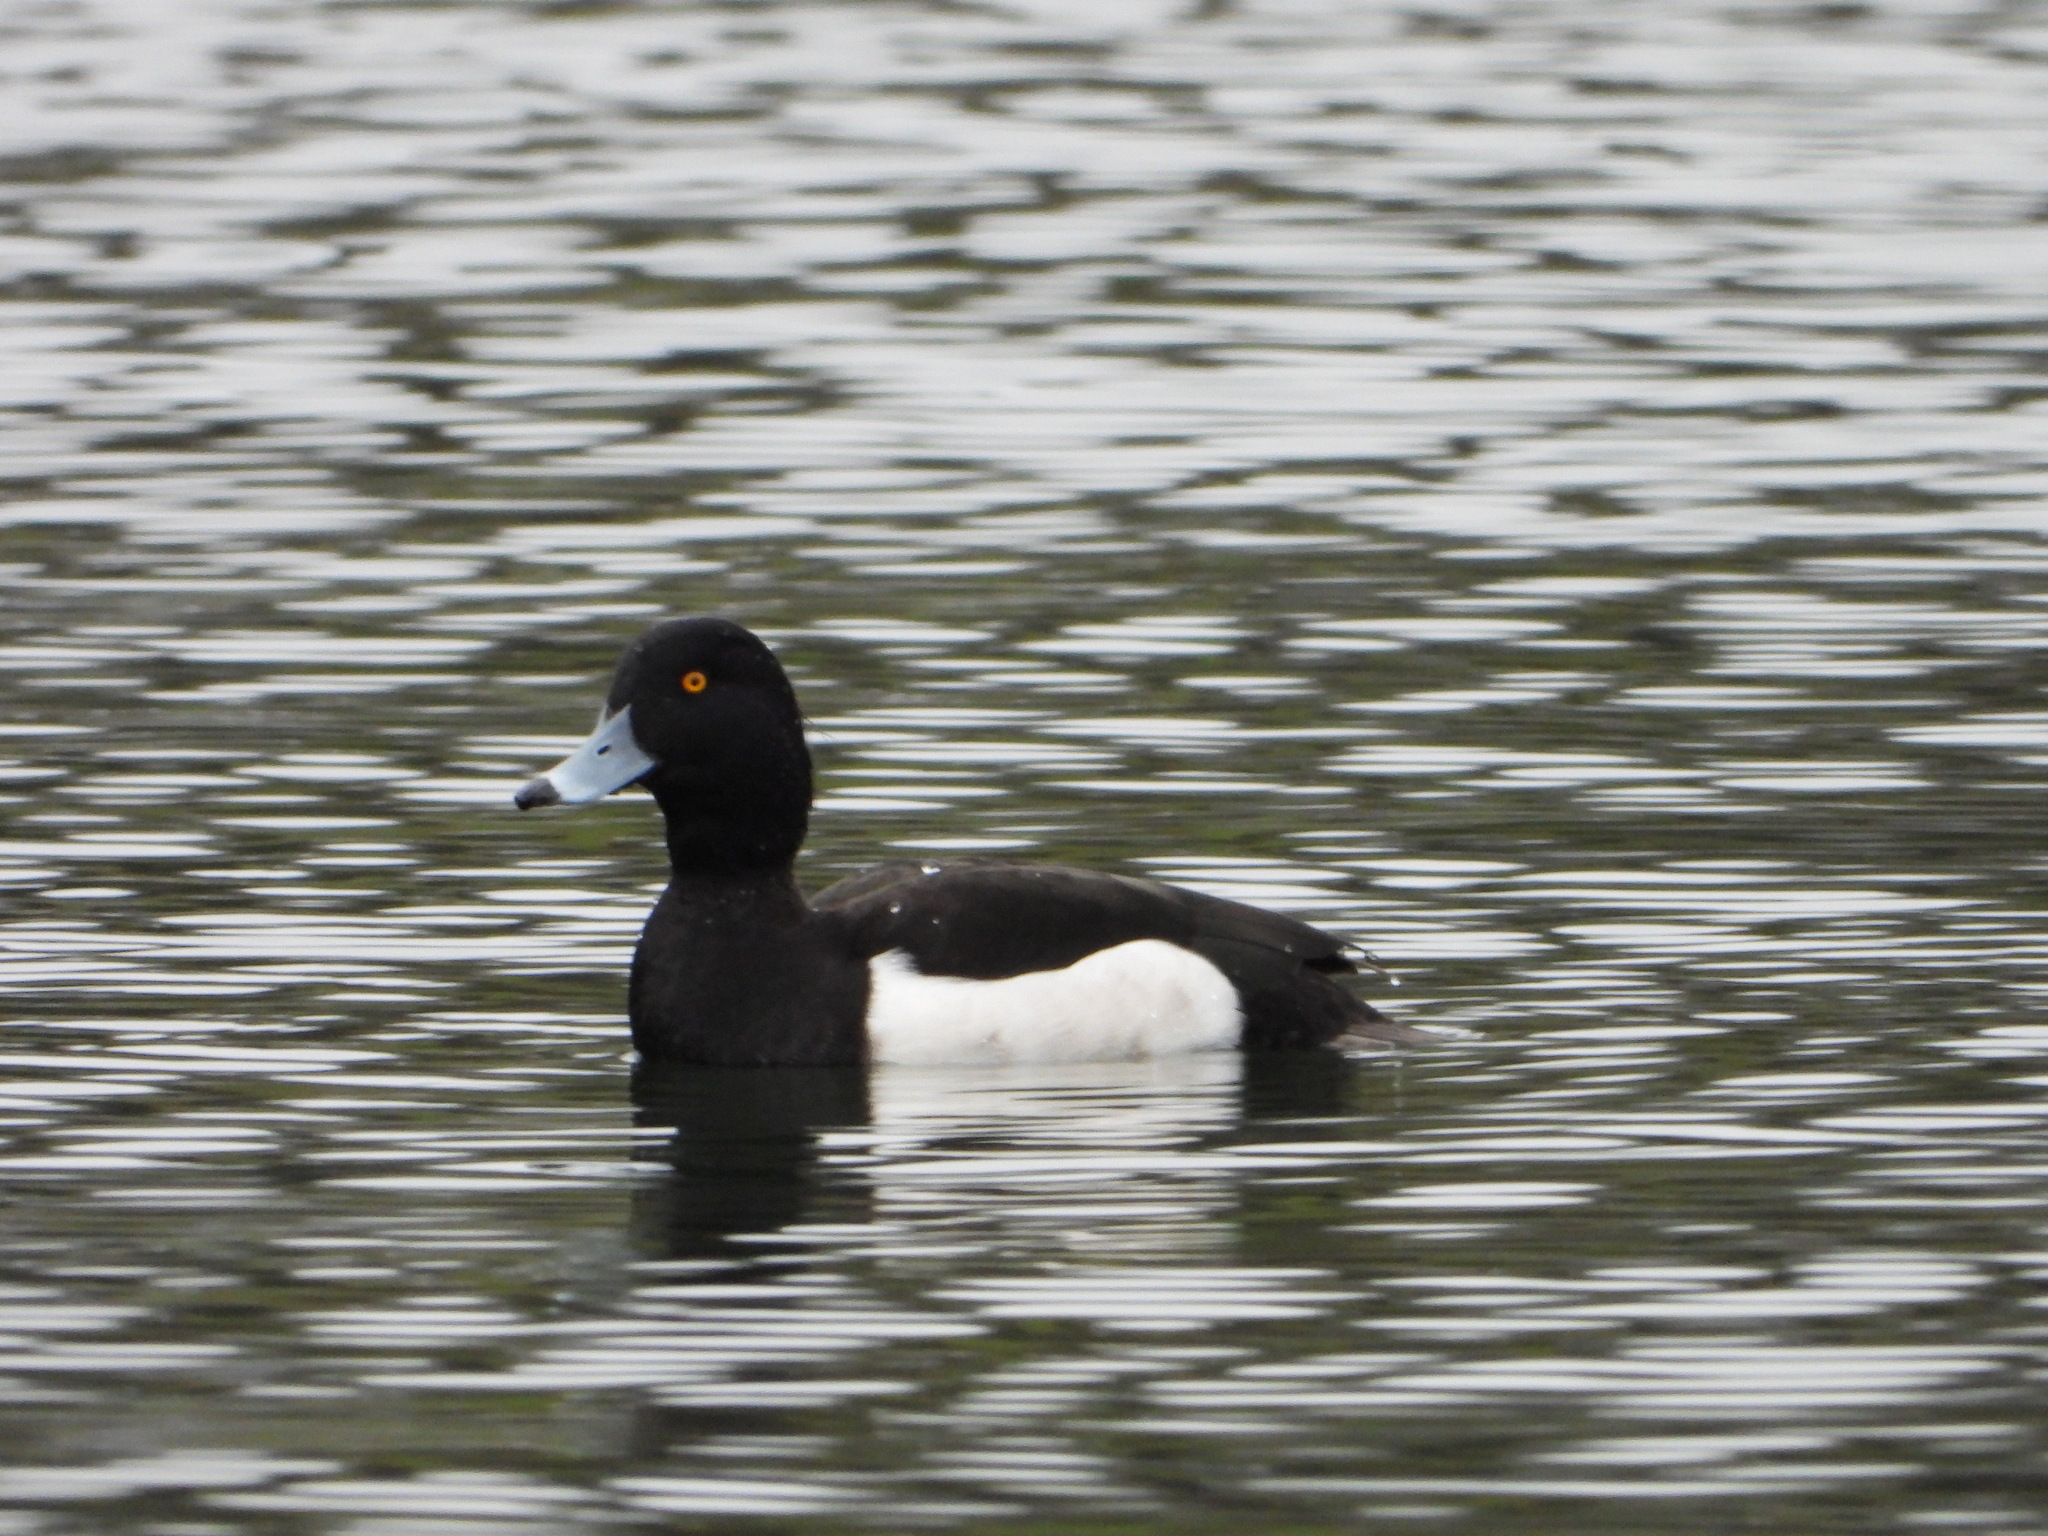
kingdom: Animalia
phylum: Chordata
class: Aves
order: Anseriformes
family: Anatidae
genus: Aythya
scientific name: Aythya fuligula
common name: Tufted duck
